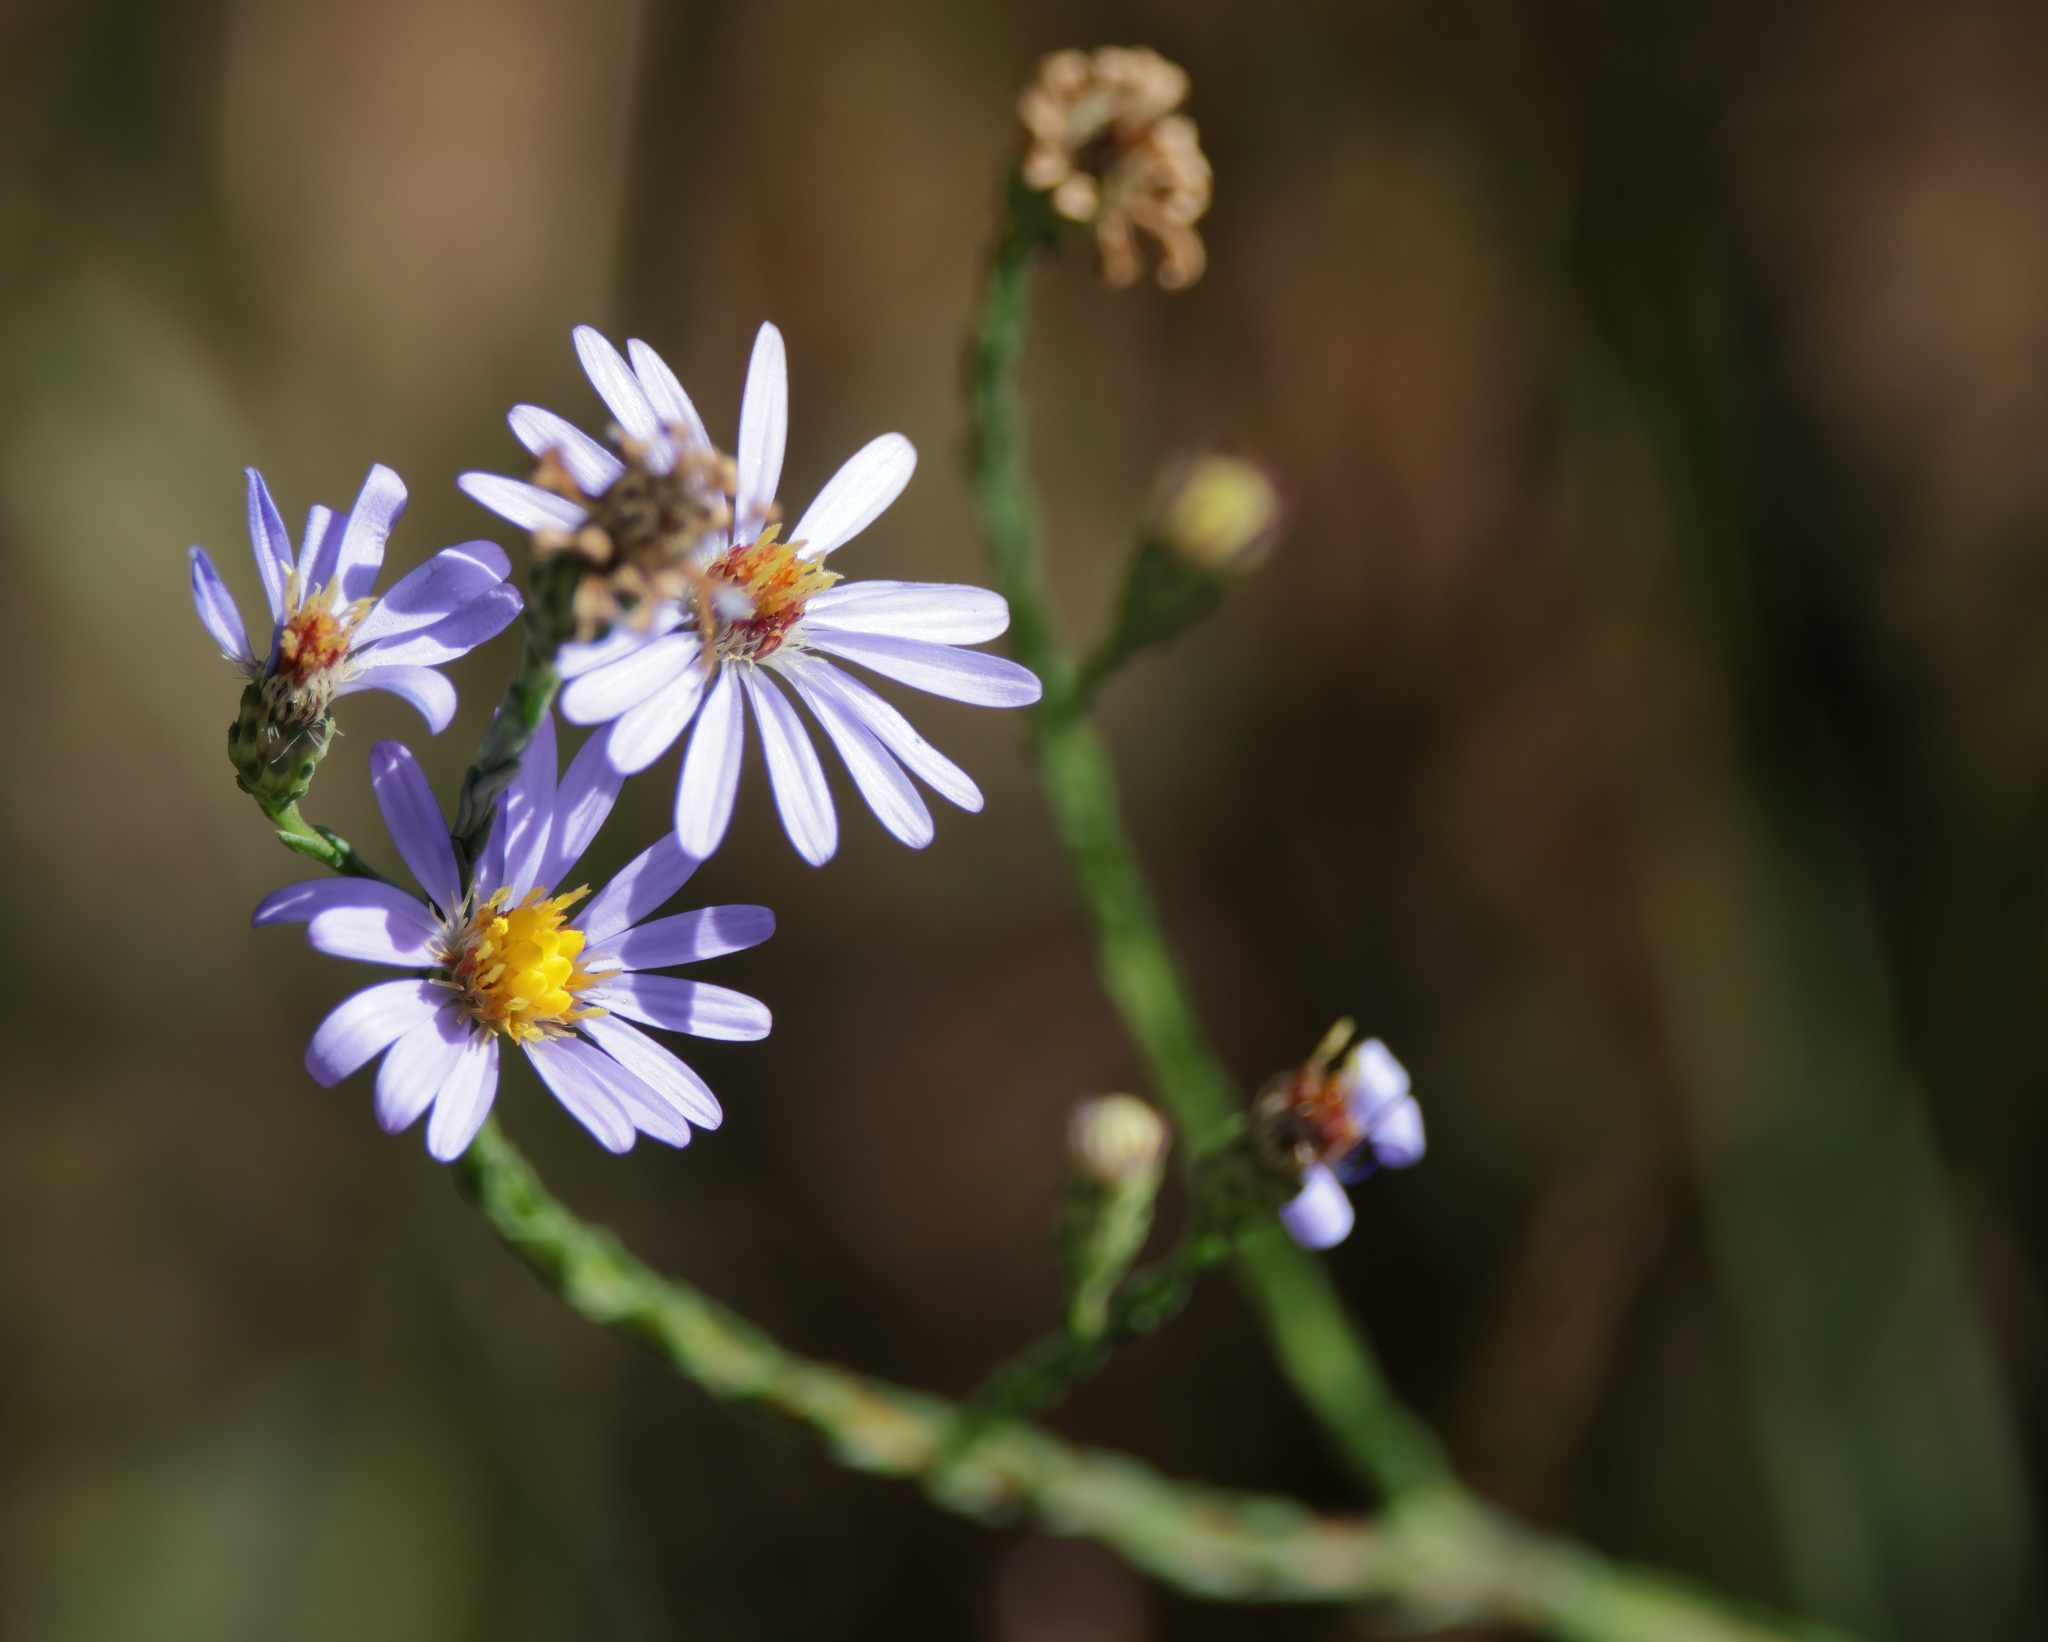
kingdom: Plantae
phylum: Tracheophyta
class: Magnoliopsida
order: Asterales
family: Asteraceae
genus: Symphyotrichum
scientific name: Symphyotrichum adnatum
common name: Scale-leaf aster
